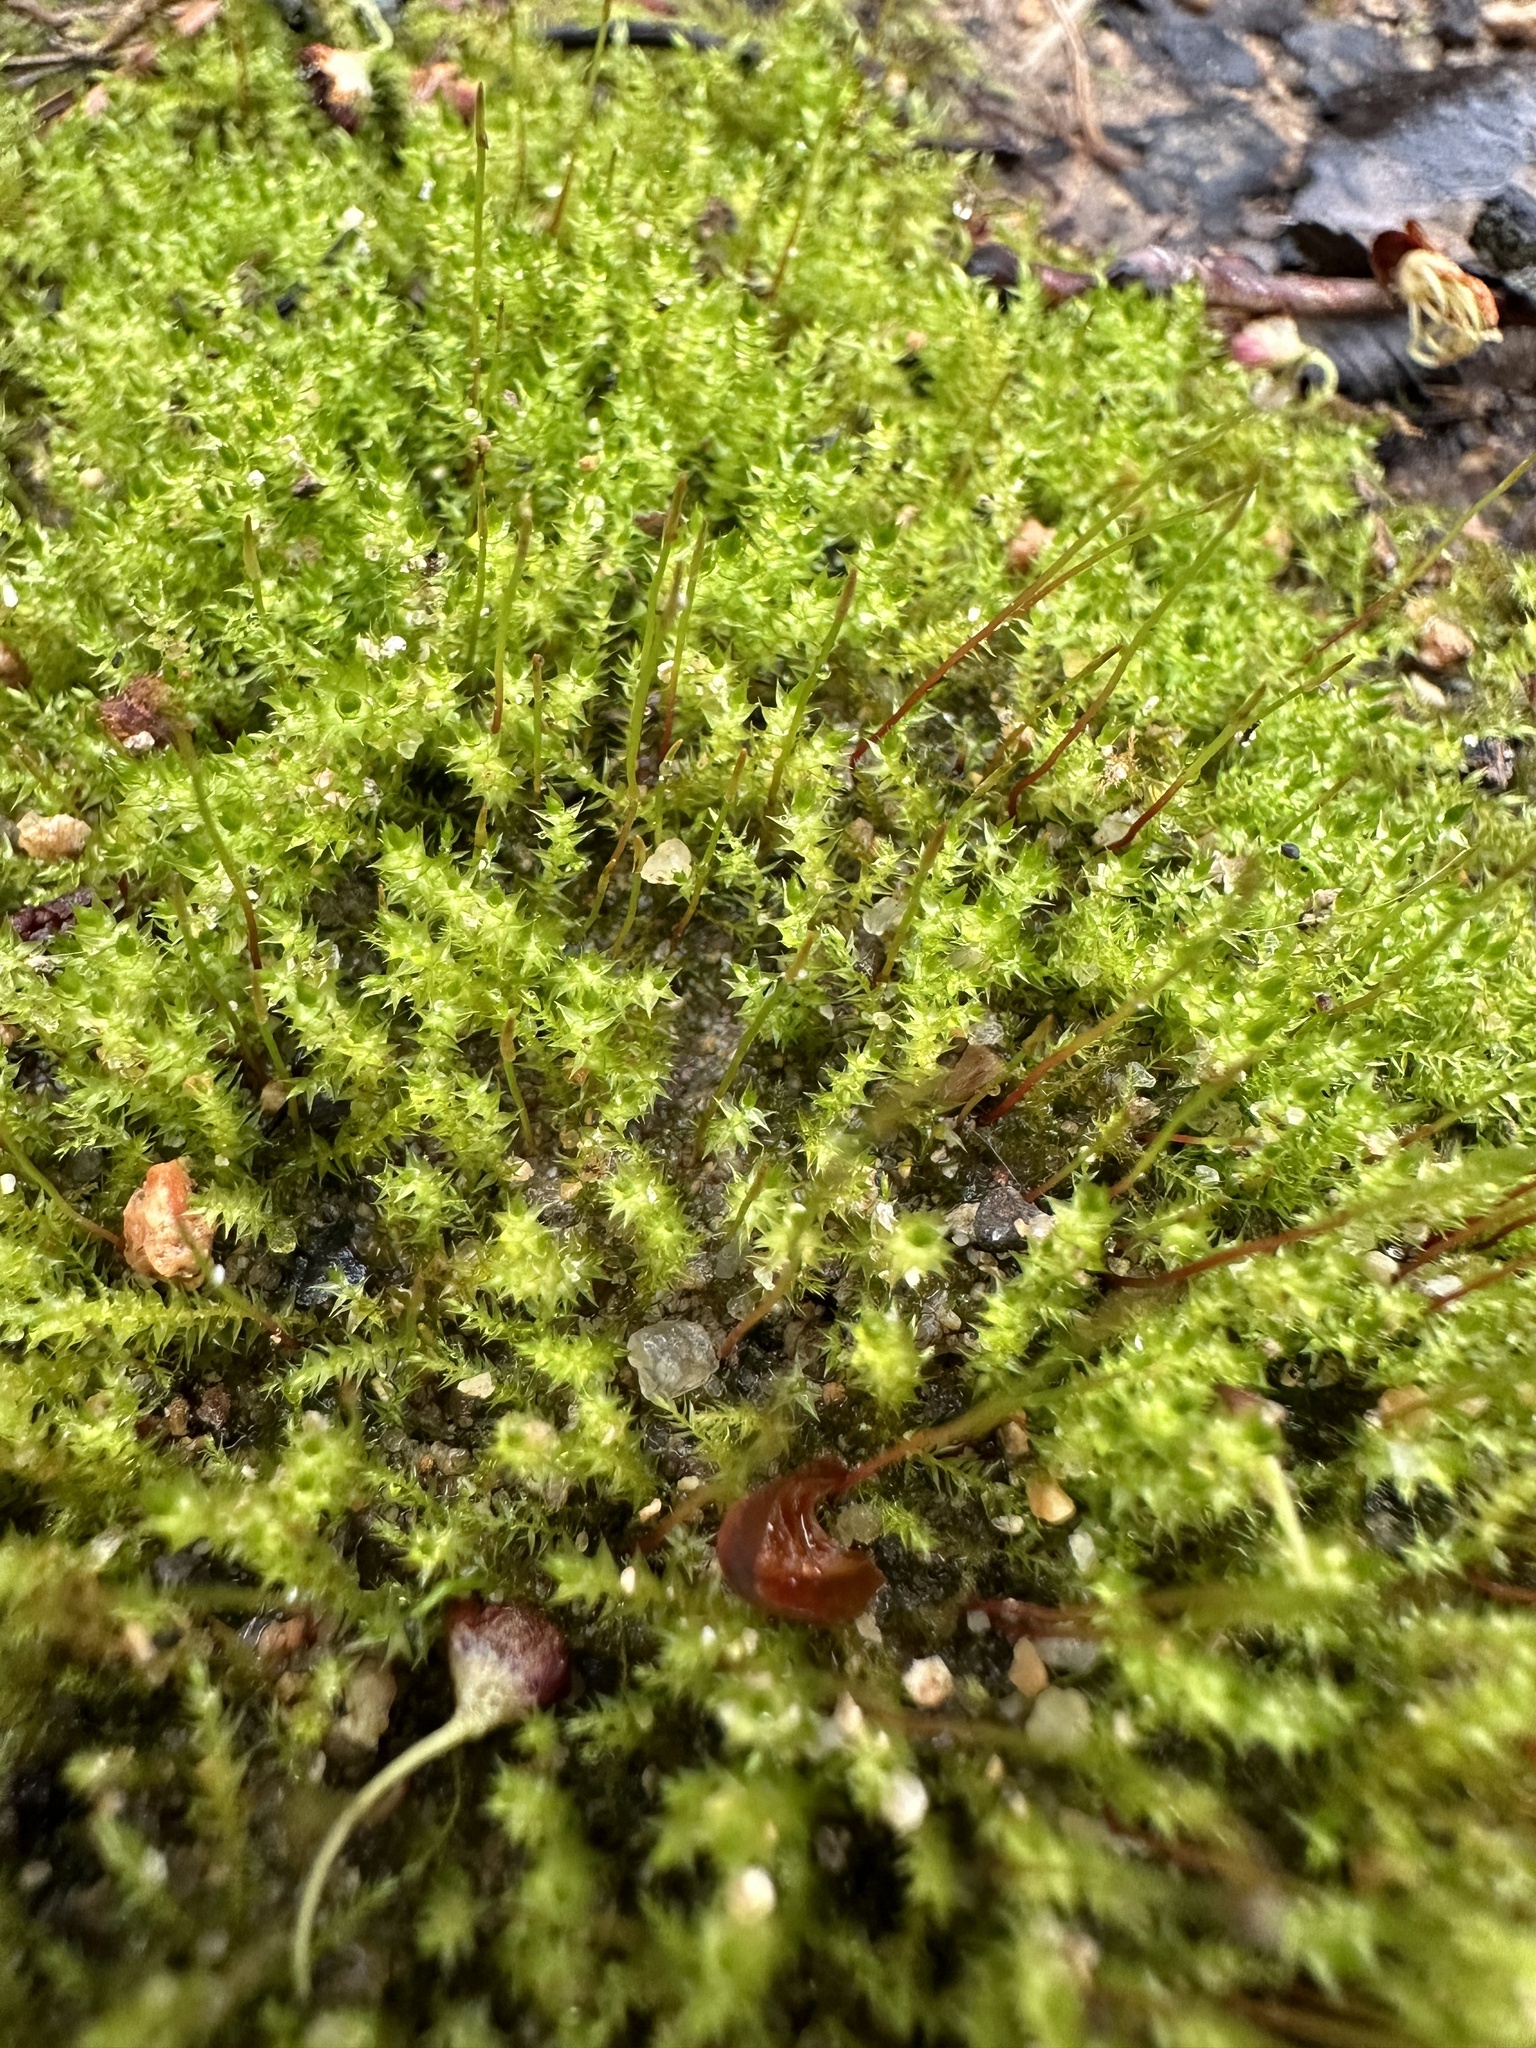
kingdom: Plantae
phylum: Bryophyta
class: Bryopsida
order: Hypnales
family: Amblystegiaceae
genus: Hygroamblystegium
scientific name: Hygroamblystegium varium
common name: Willow feather-moss
